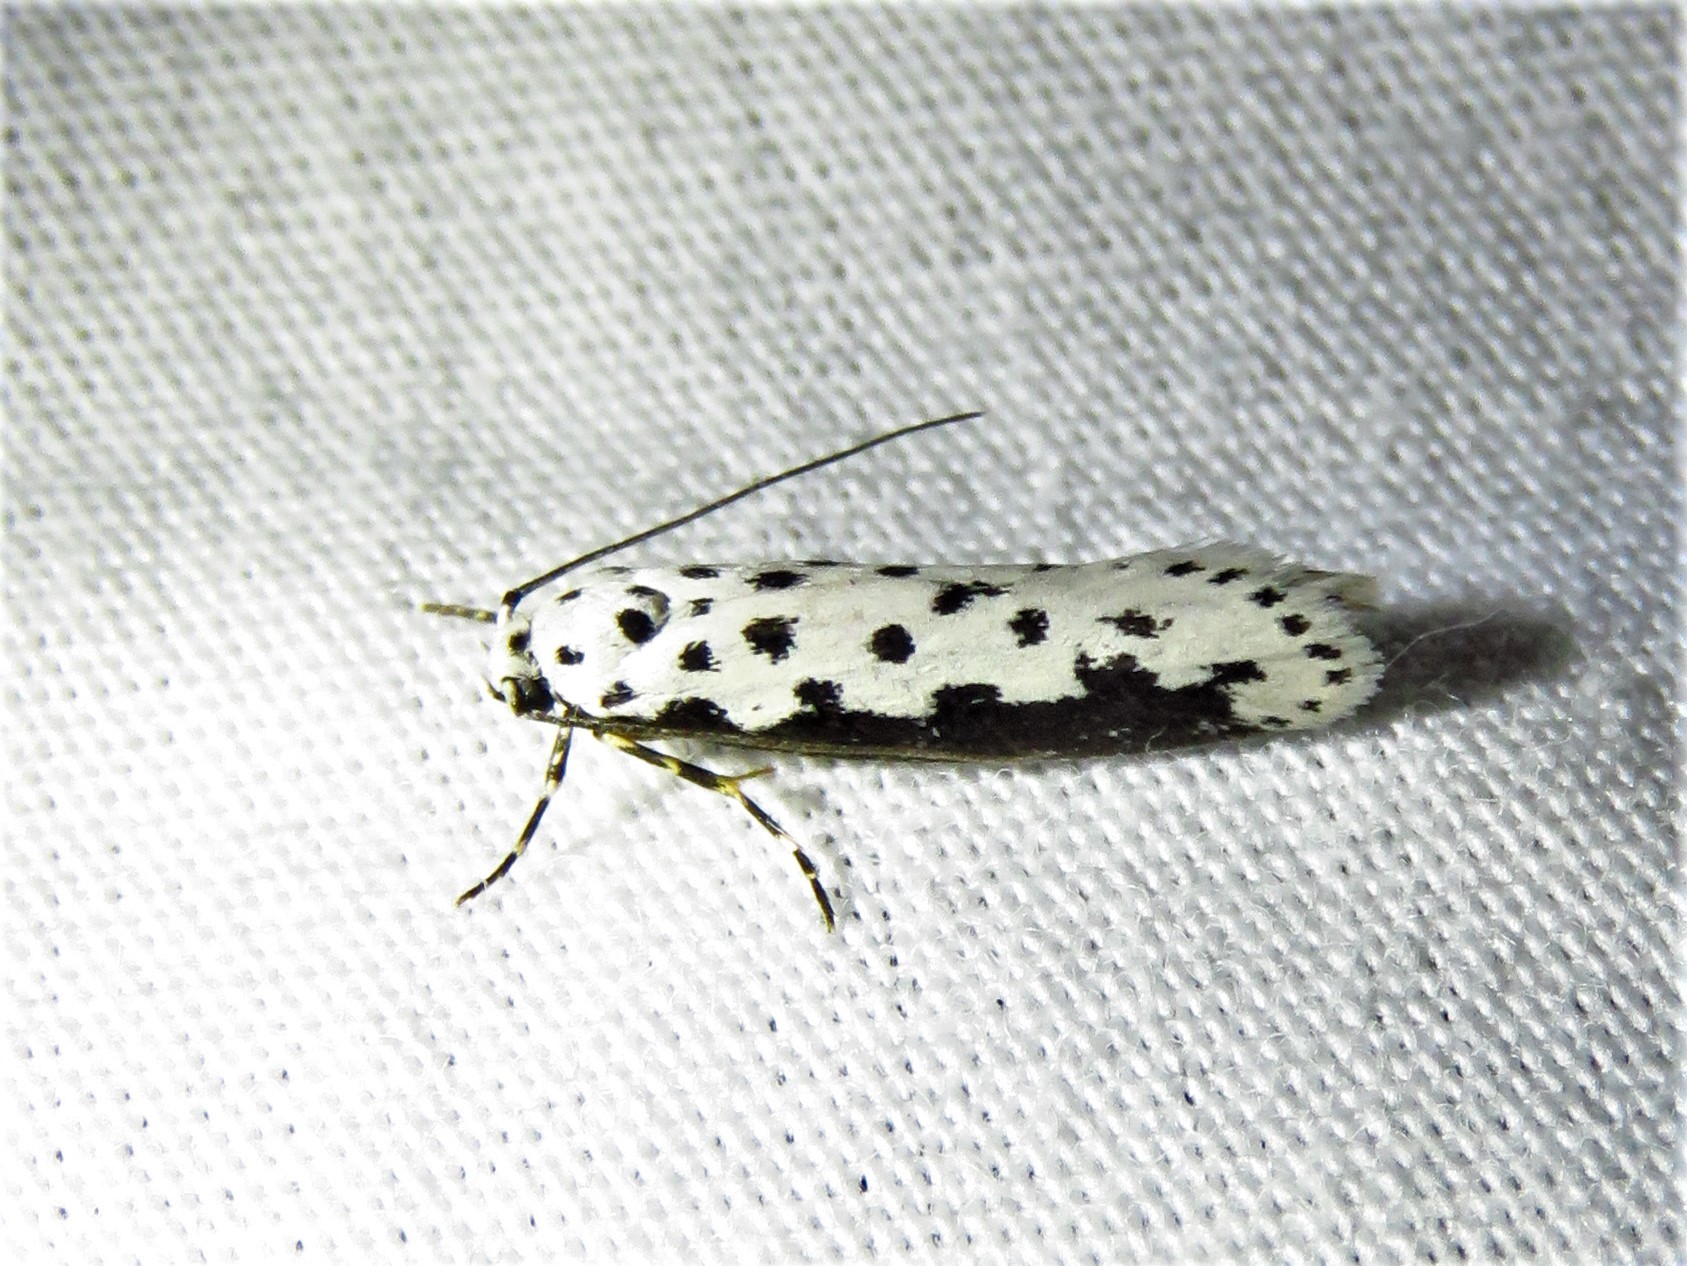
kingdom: Animalia
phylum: Arthropoda
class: Insecta
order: Lepidoptera
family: Ethmiidae
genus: Ethmia
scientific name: Ethmia hagenella
